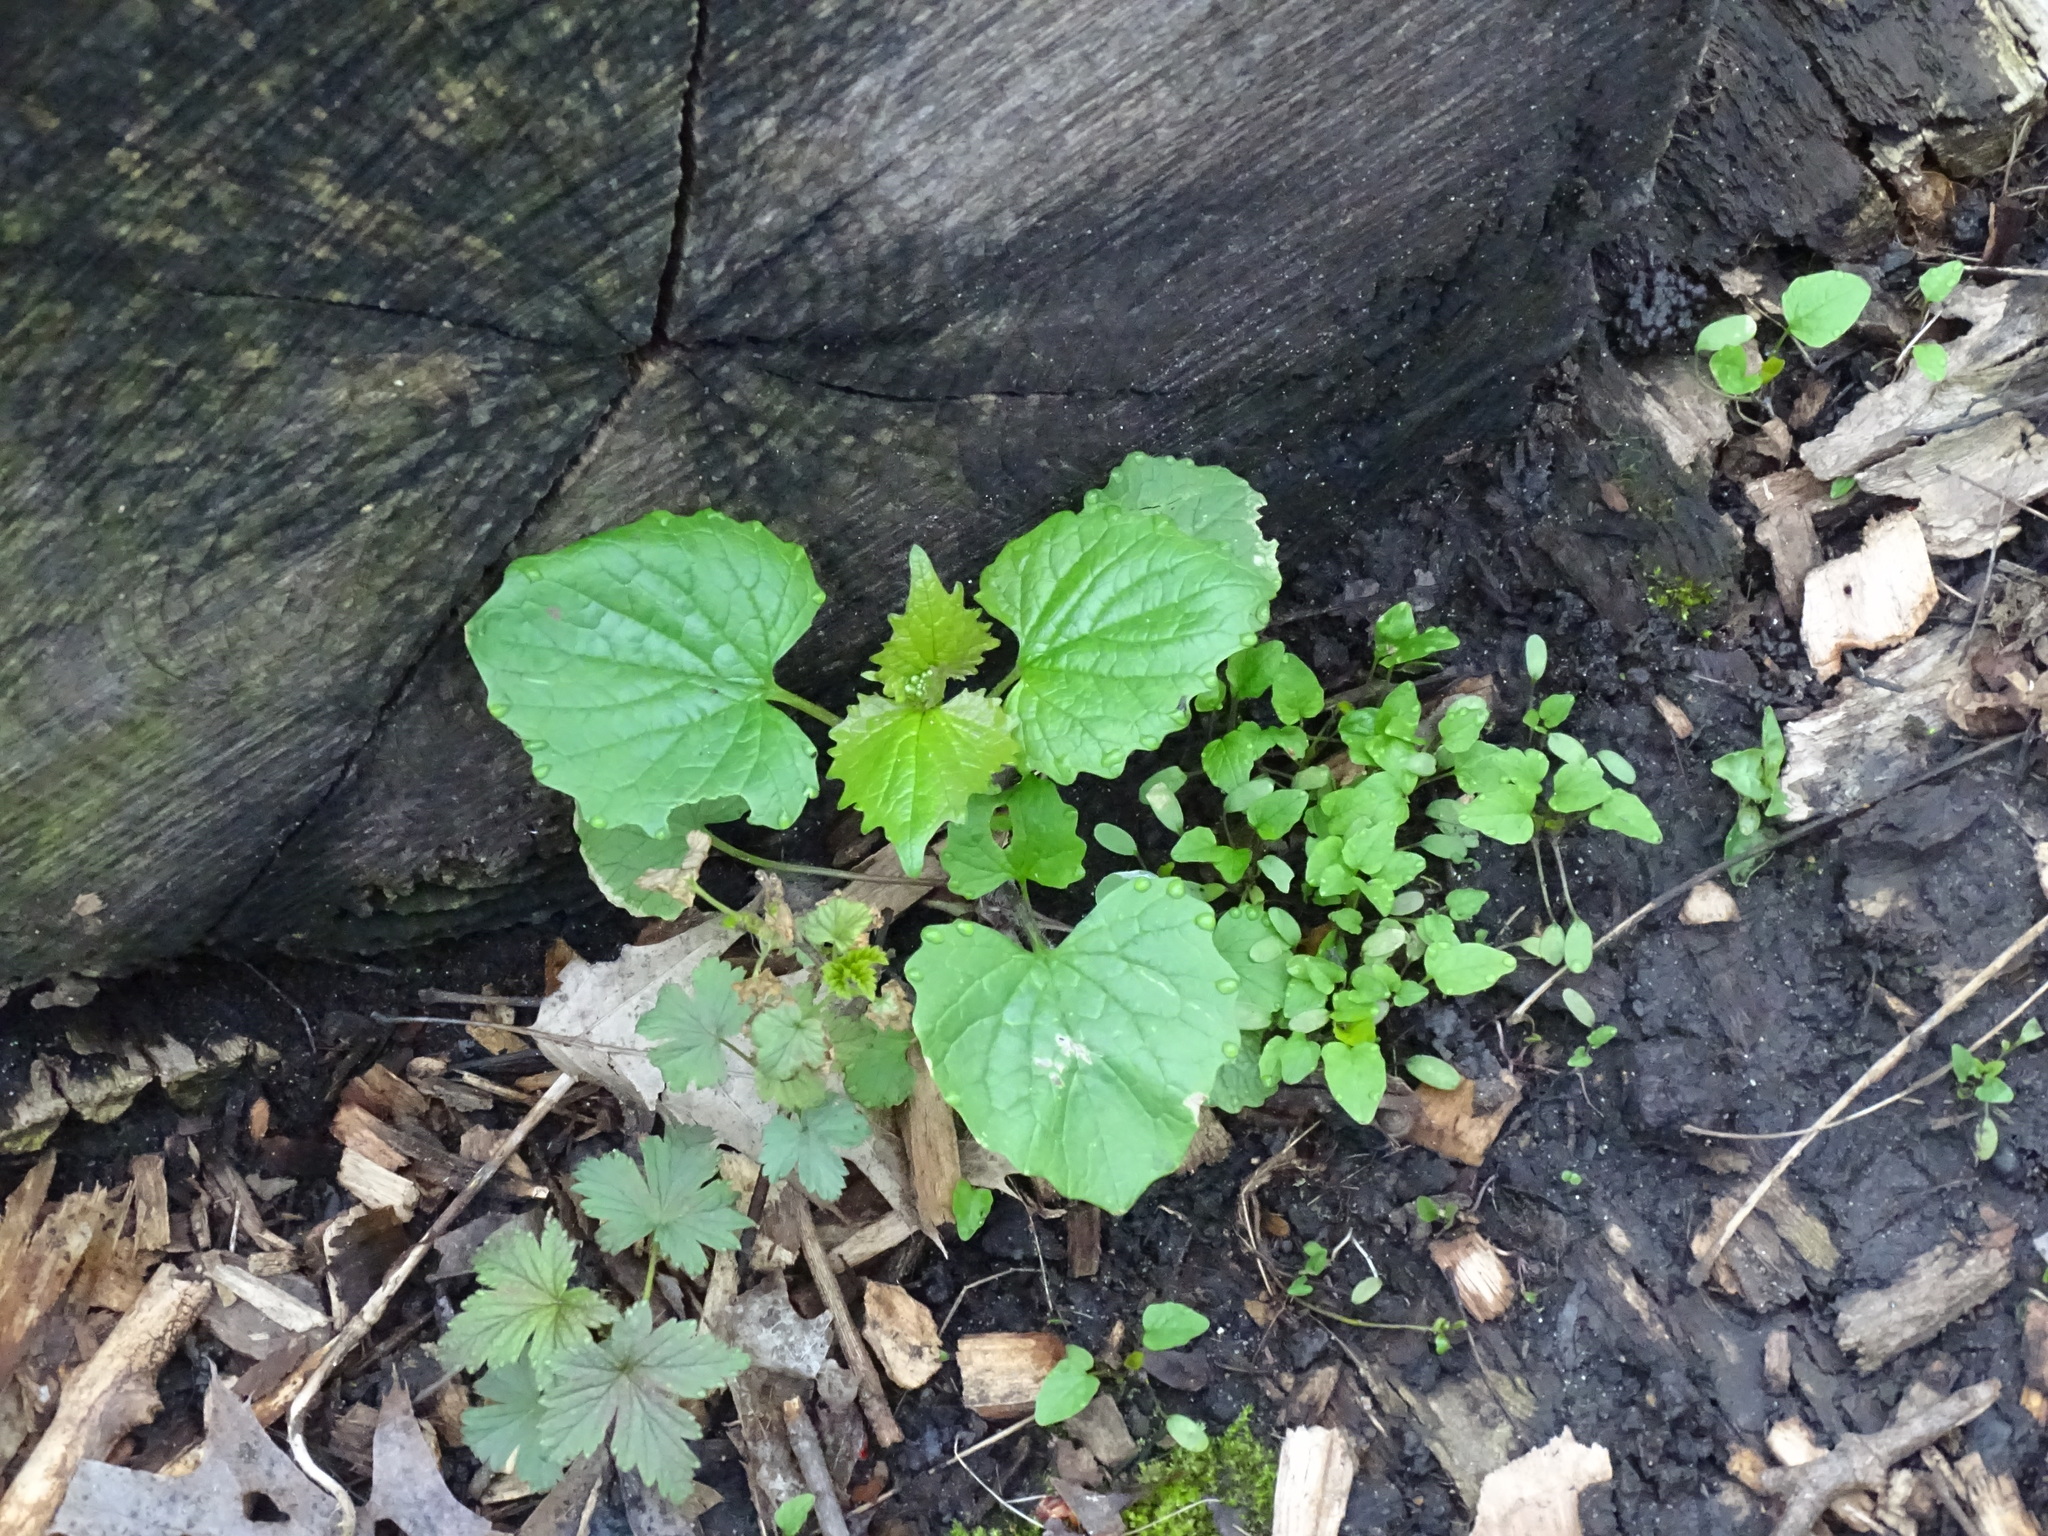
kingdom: Plantae
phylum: Tracheophyta
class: Magnoliopsida
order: Brassicales
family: Brassicaceae
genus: Alliaria
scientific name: Alliaria petiolata
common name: Garlic mustard
